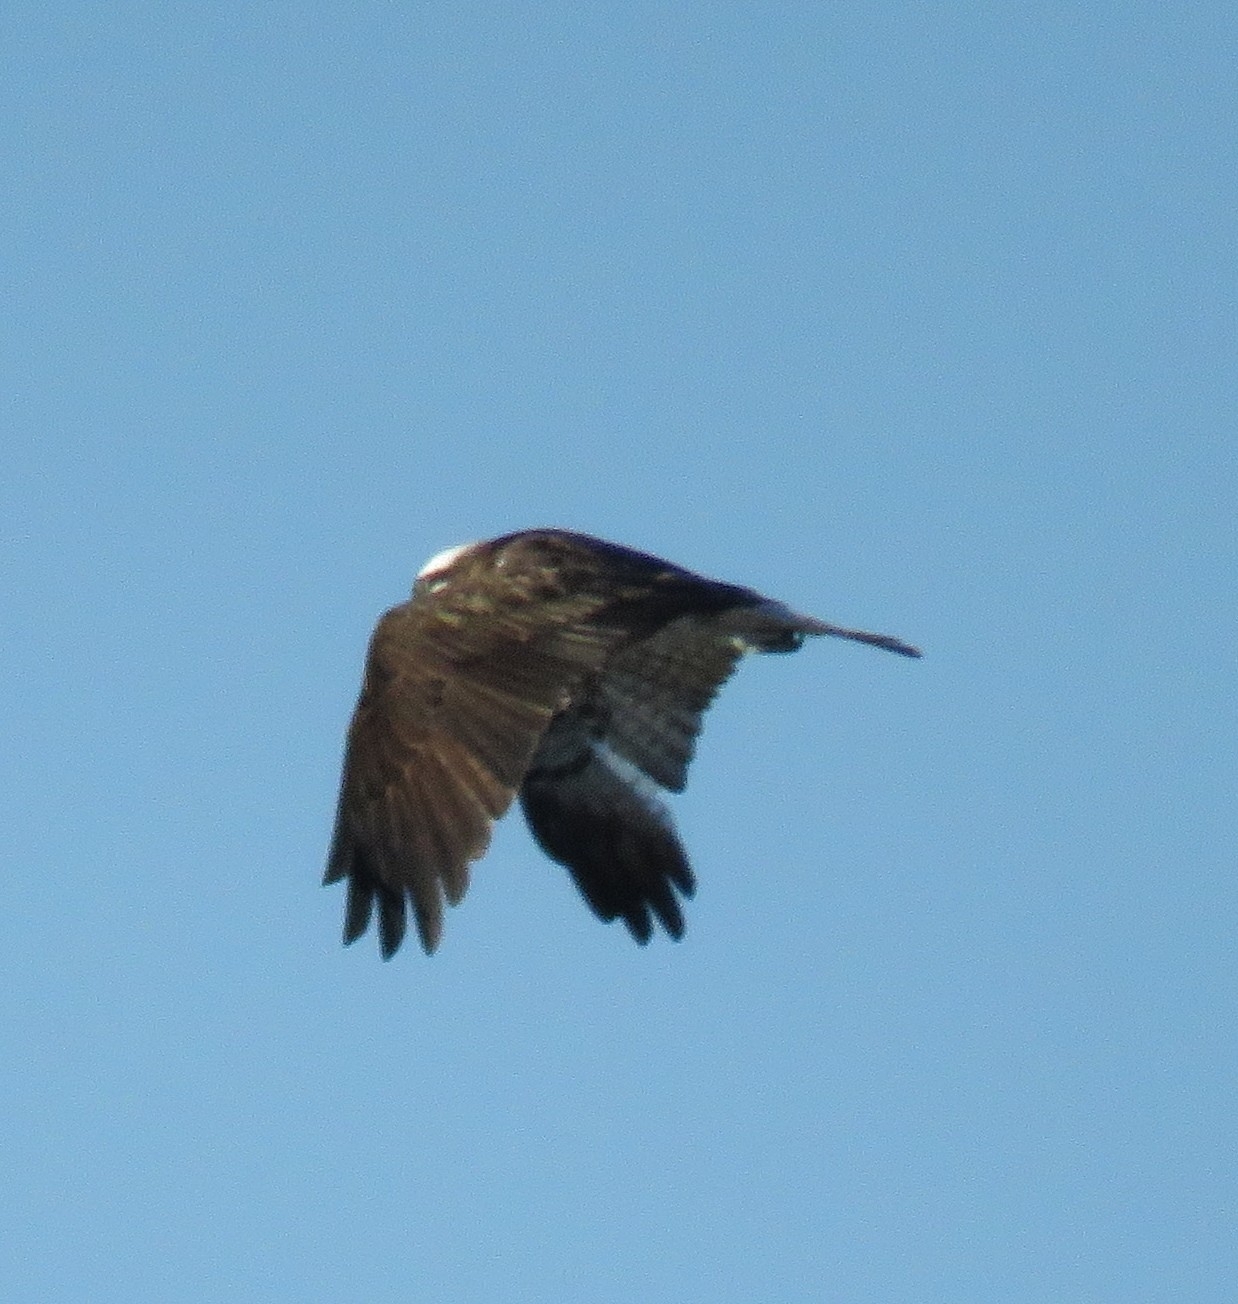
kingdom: Animalia
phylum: Chordata
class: Aves
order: Accipitriformes
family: Pandionidae
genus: Pandion
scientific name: Pandion haliaetus
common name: Osprey
